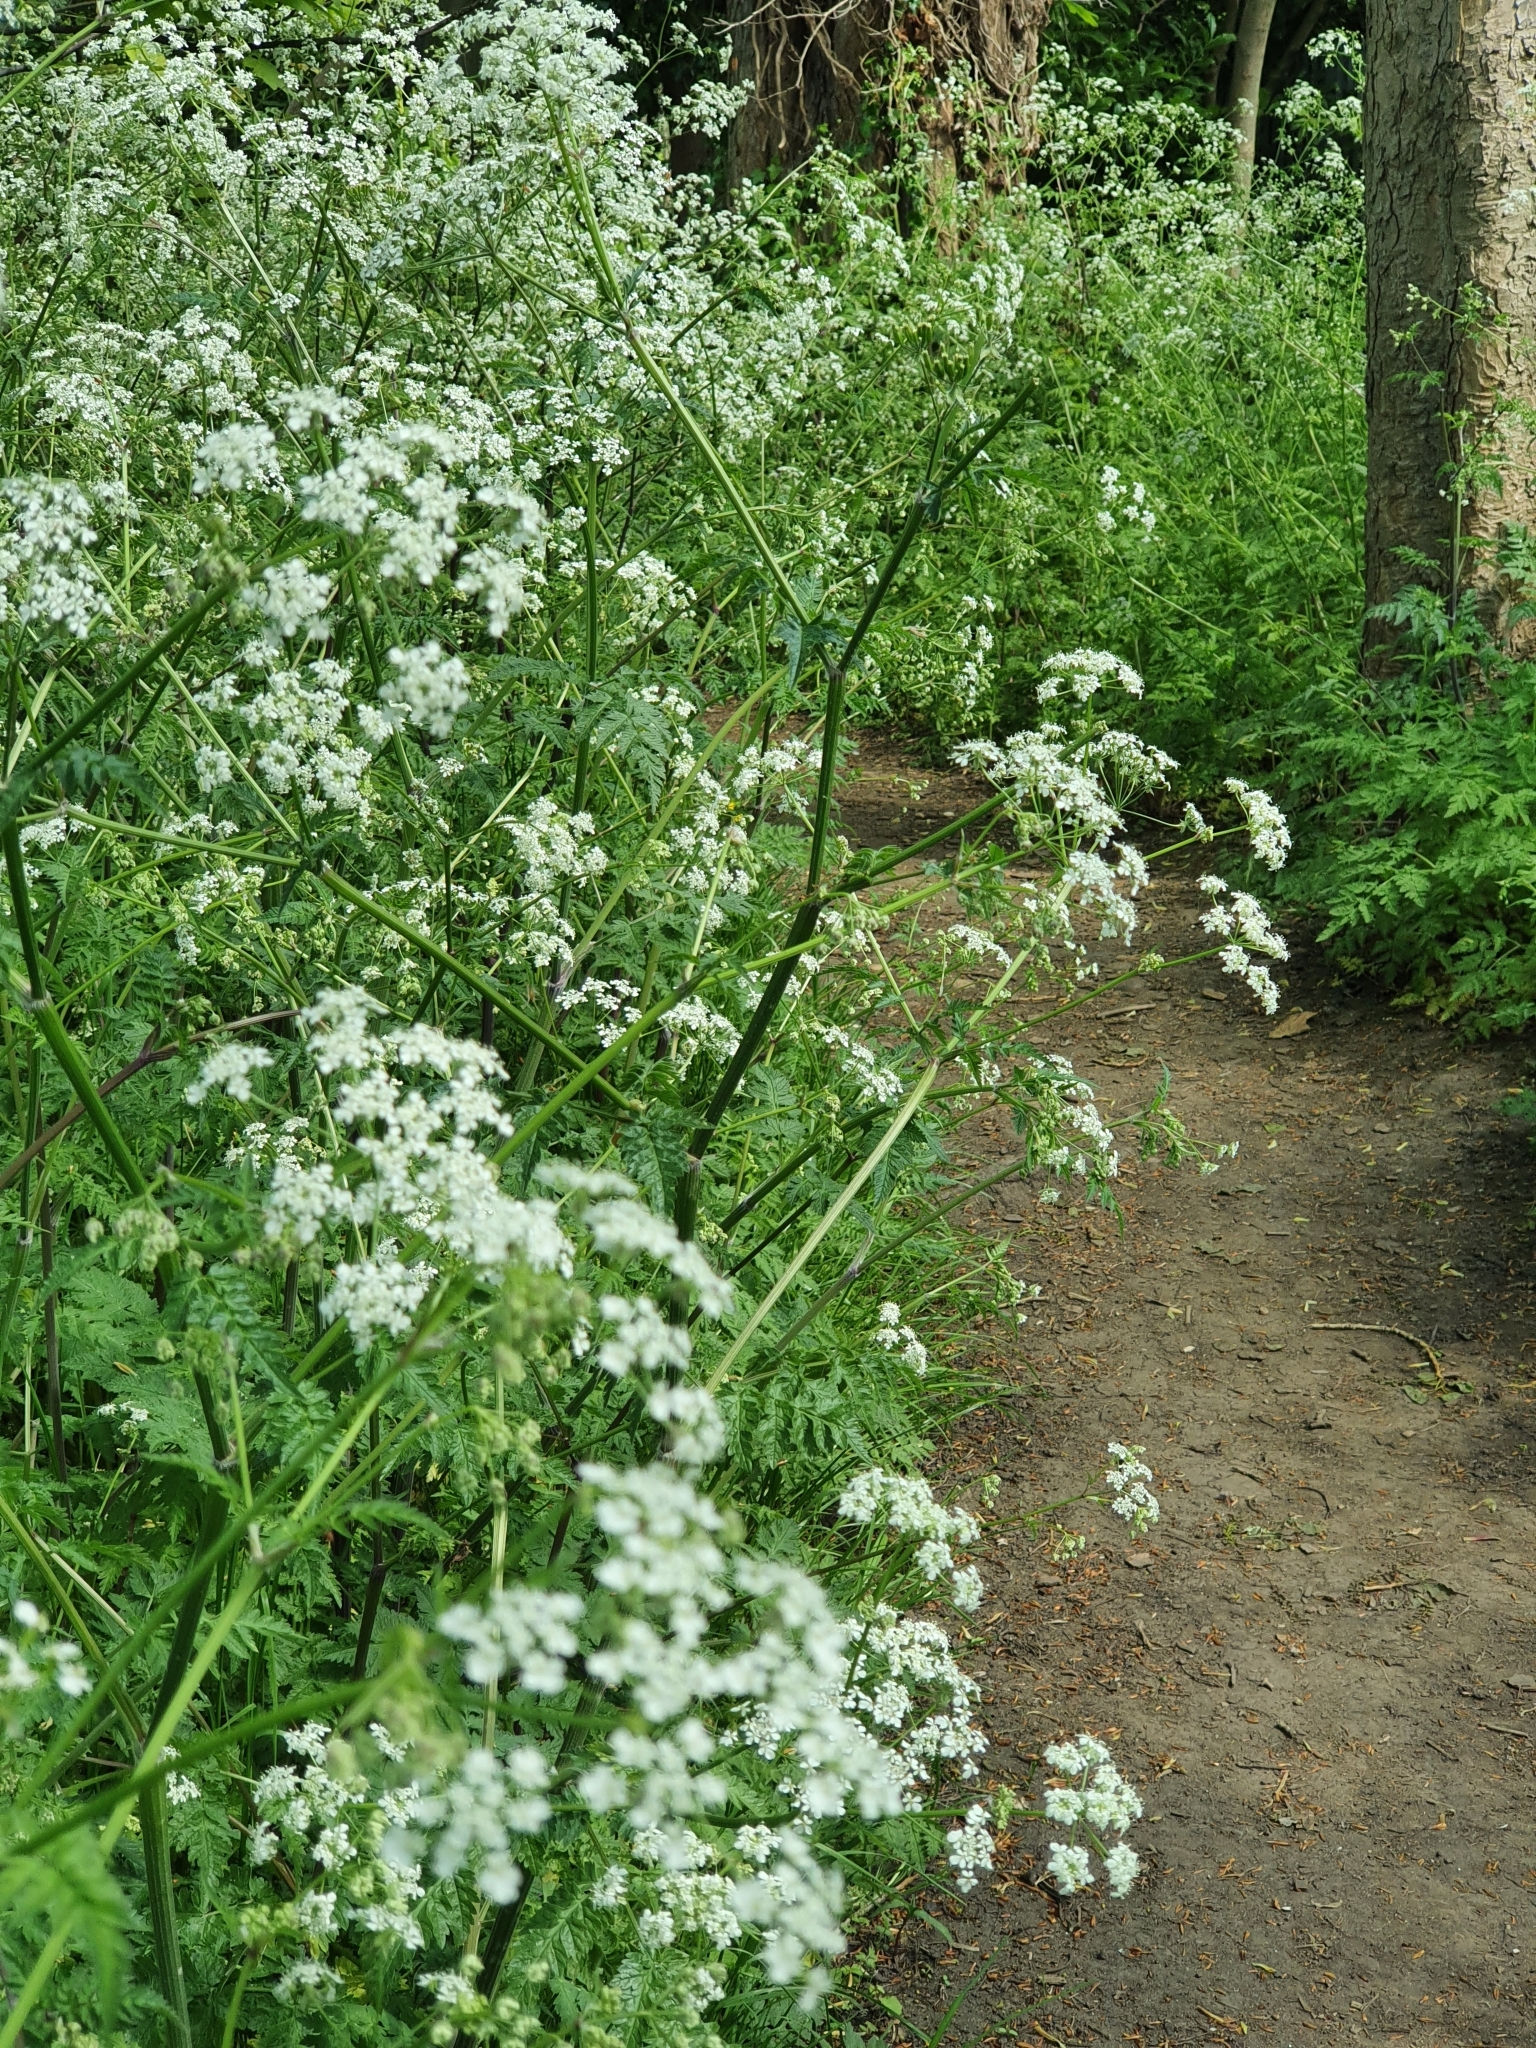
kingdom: Plantae
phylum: Tracheophyta
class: Magnoliopsida
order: Apiales
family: Apiaceae
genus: Anthriscus
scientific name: Anthriscus sylvestris
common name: Cow parsley
